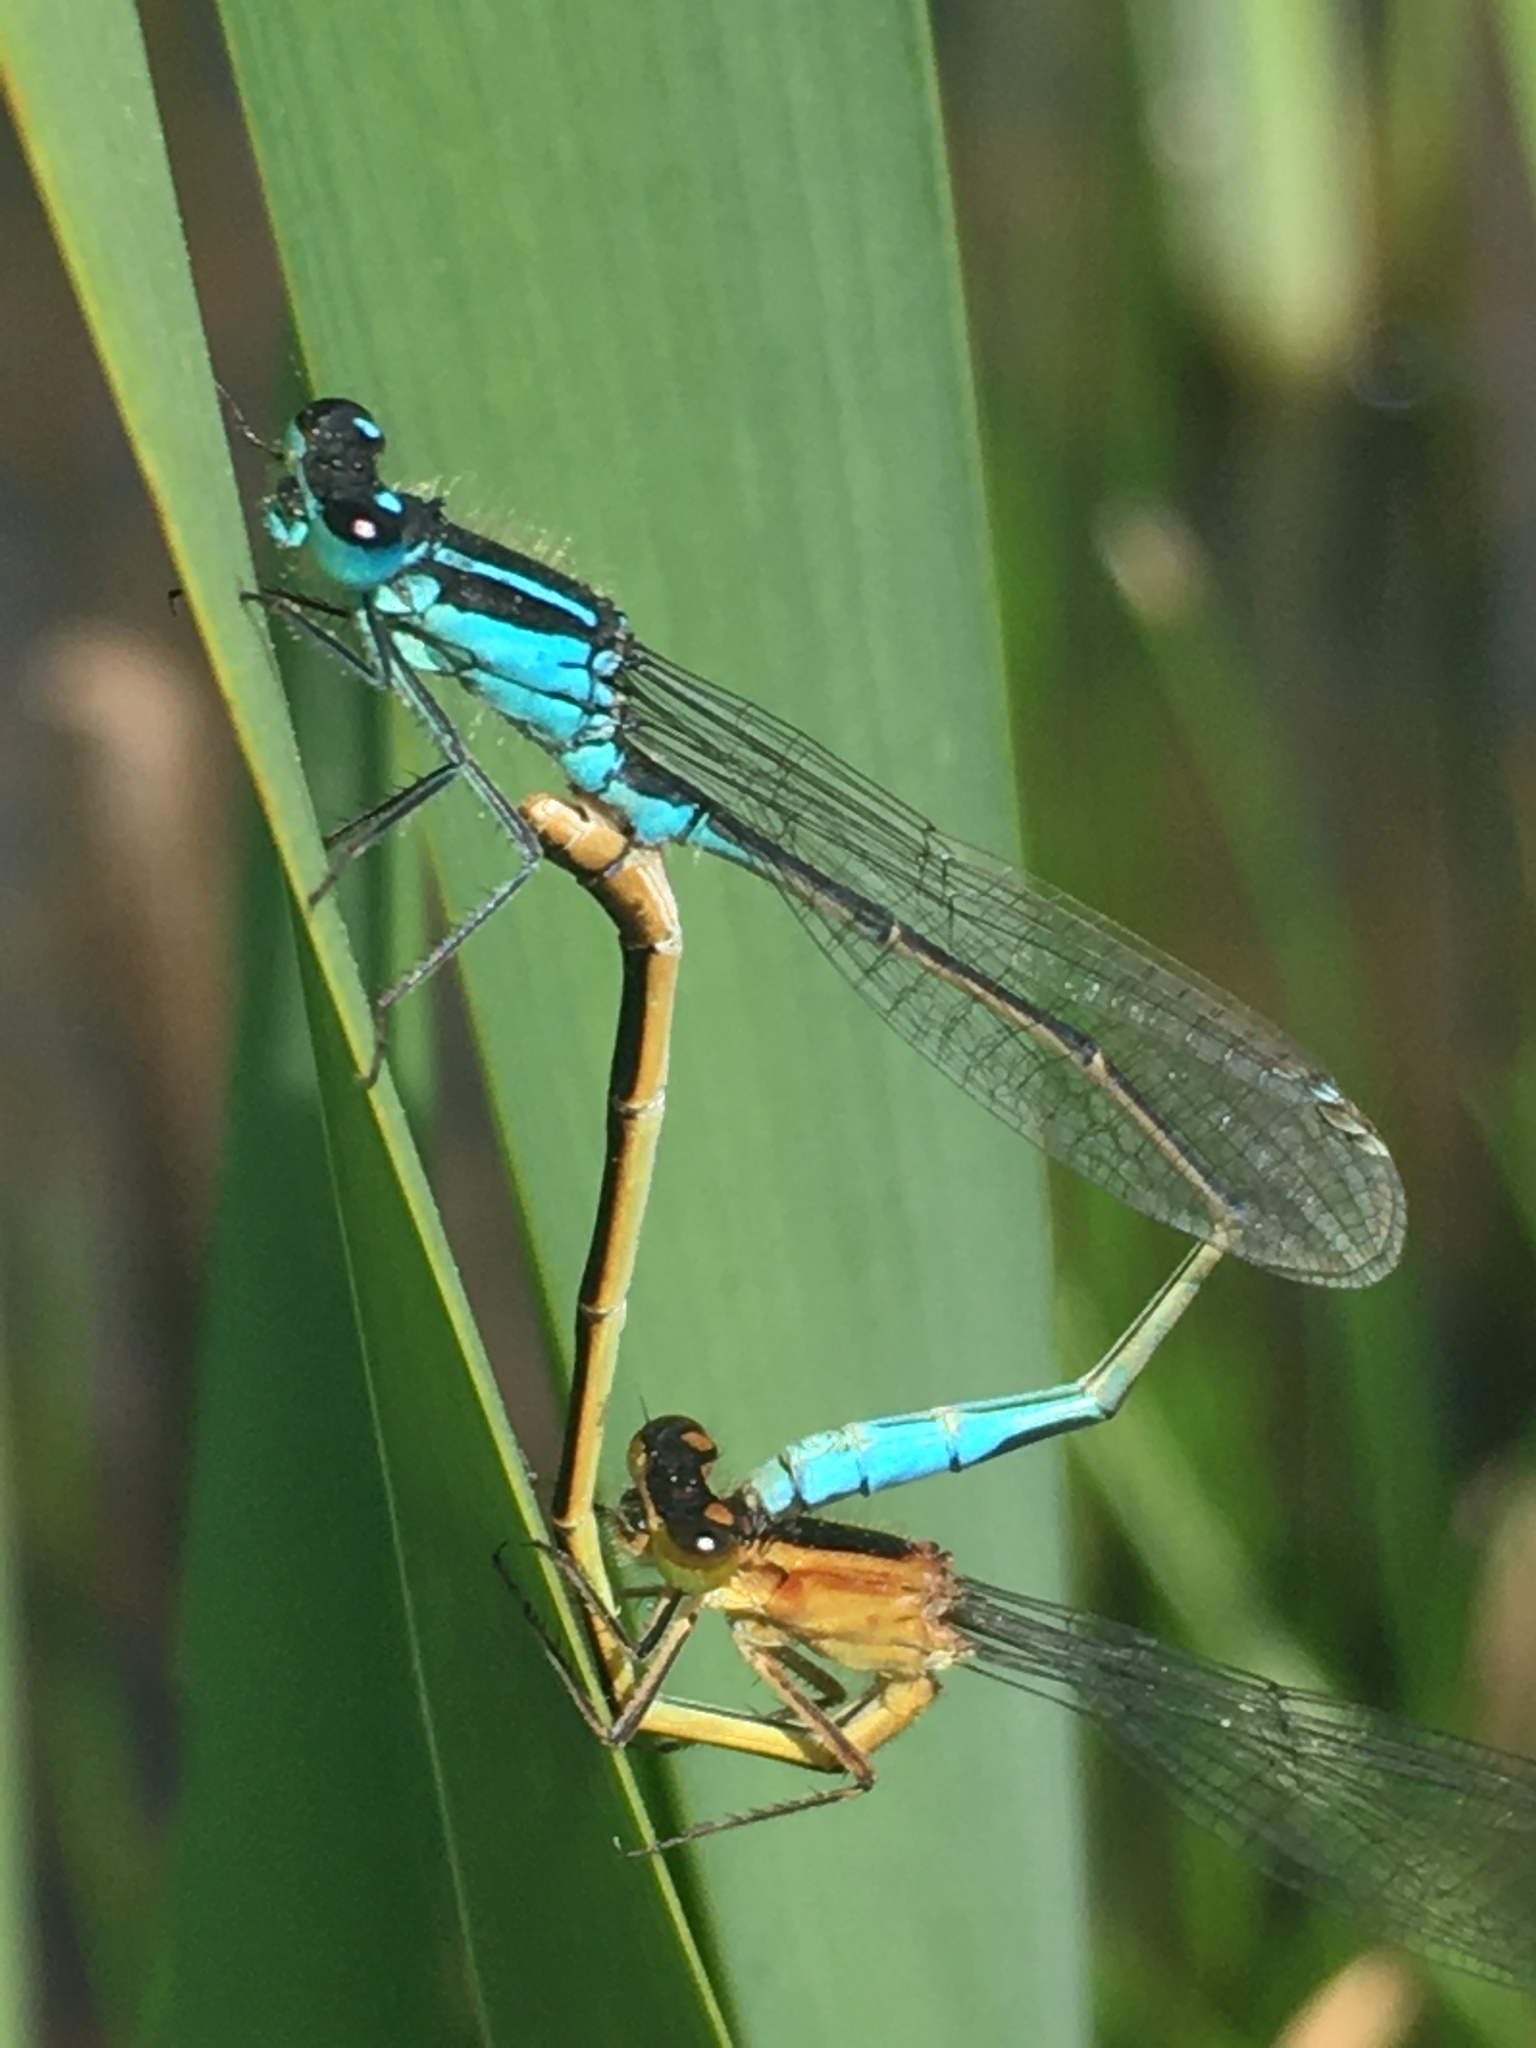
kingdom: Animalia
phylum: Arthropoda
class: Insecta
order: Odonata
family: Coenagrionidae
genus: Ischnura
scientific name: Ischnura elegans
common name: Blue-tailed damselfly
